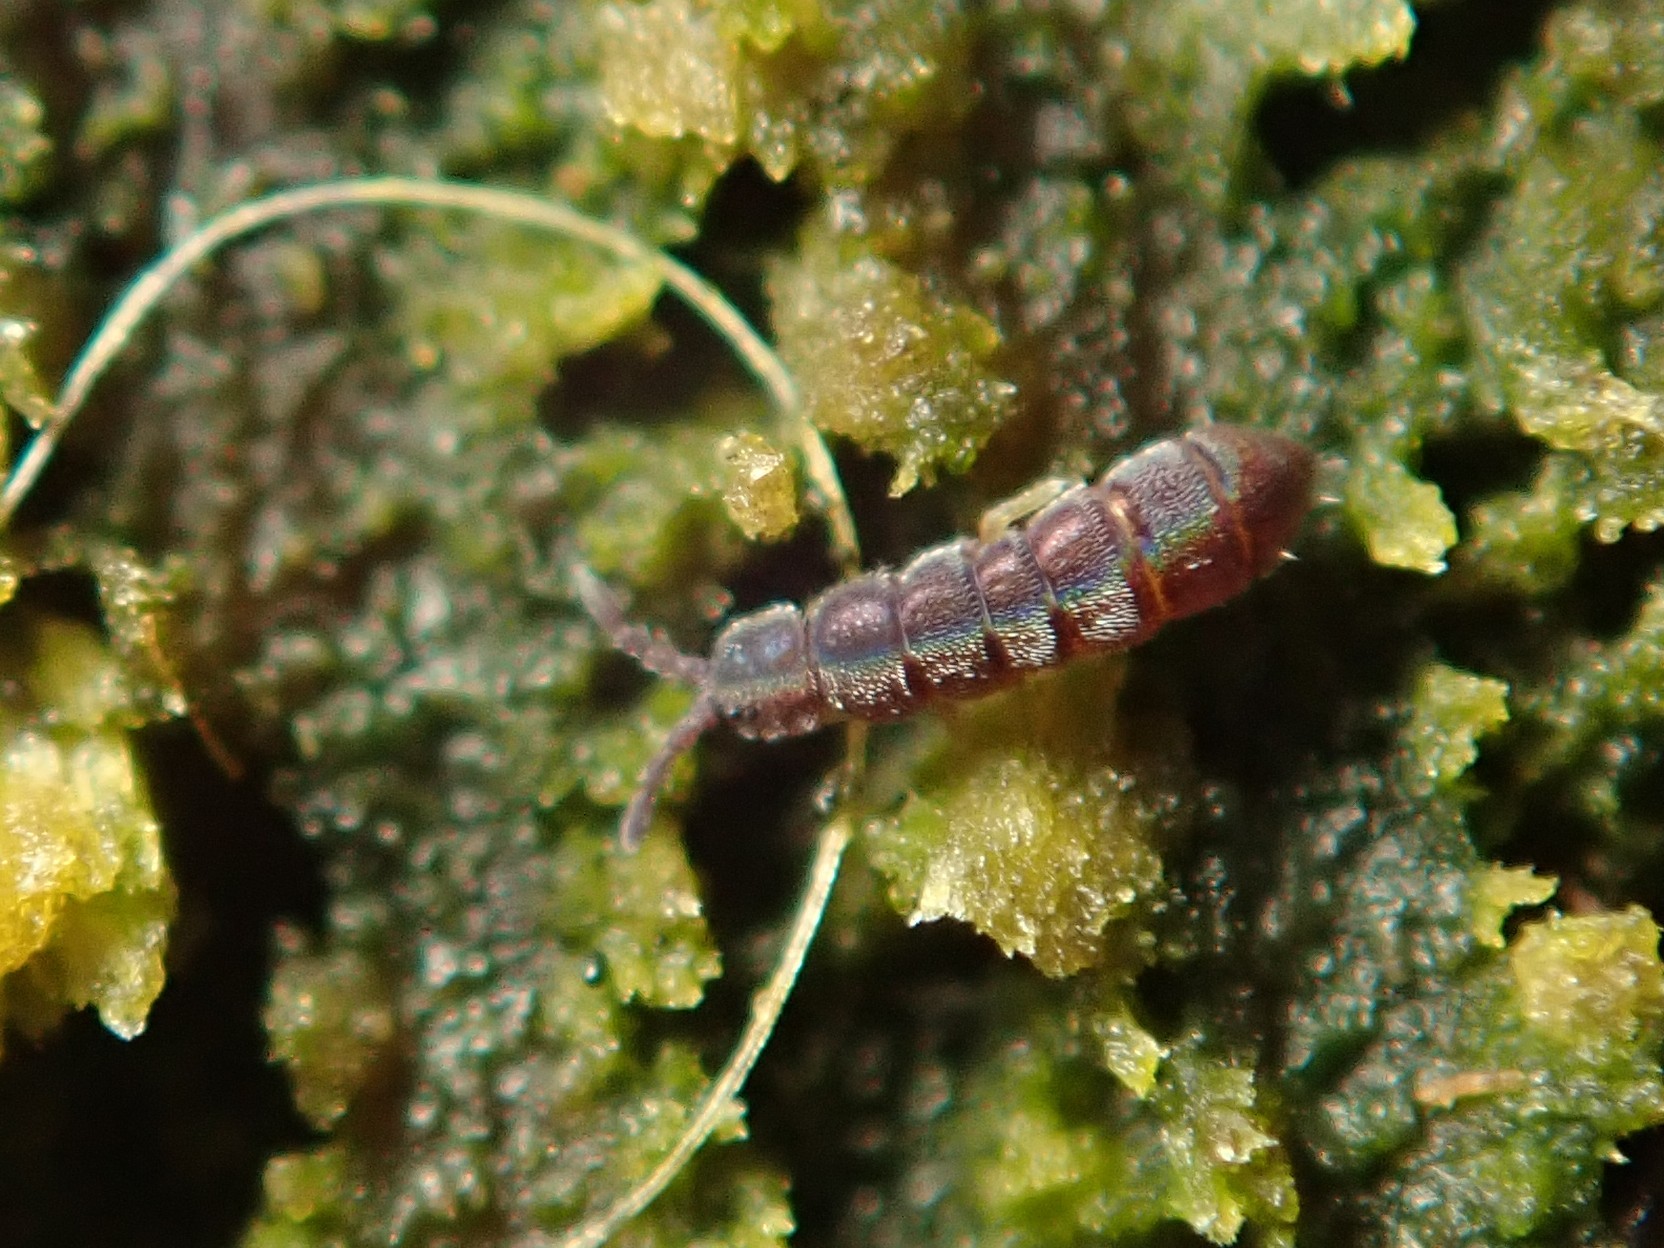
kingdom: Animalia
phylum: Arthropoda
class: Collembola
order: Entomobryomorpha
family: Isotomidae
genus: Vertagopus
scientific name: Vertagopus asiaticus
